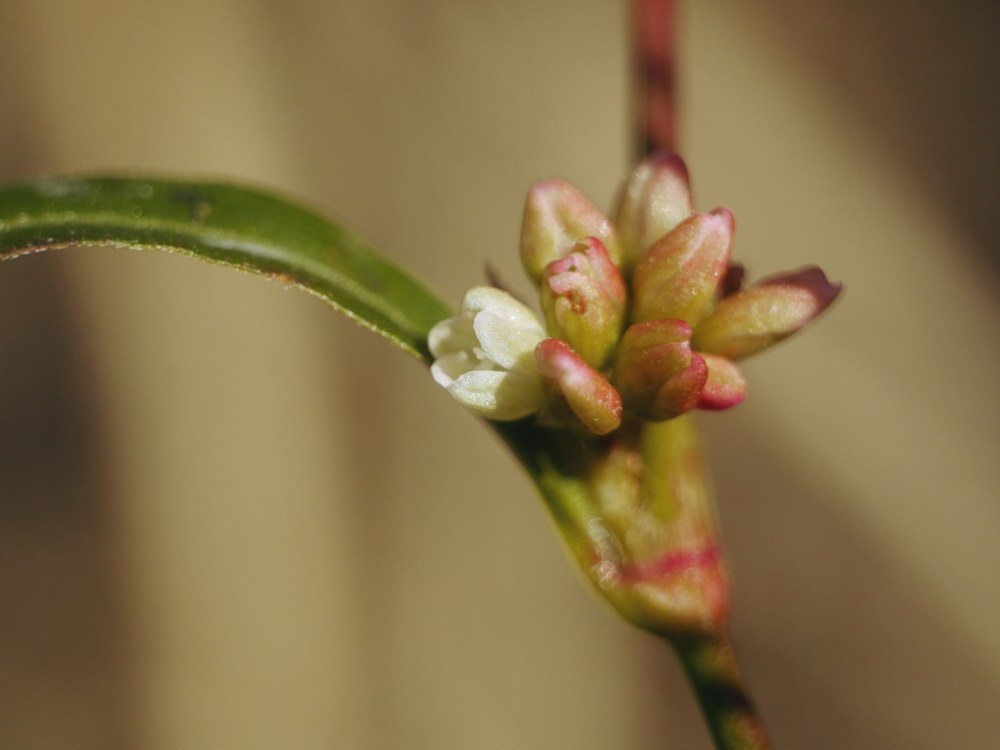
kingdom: Plantae
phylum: Tracheophyta
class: Magnoliopsida
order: Caryophyllales
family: Polygonaceae
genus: Persicaria
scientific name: Persicaria lapathifolia
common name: Curlytop knotweed
